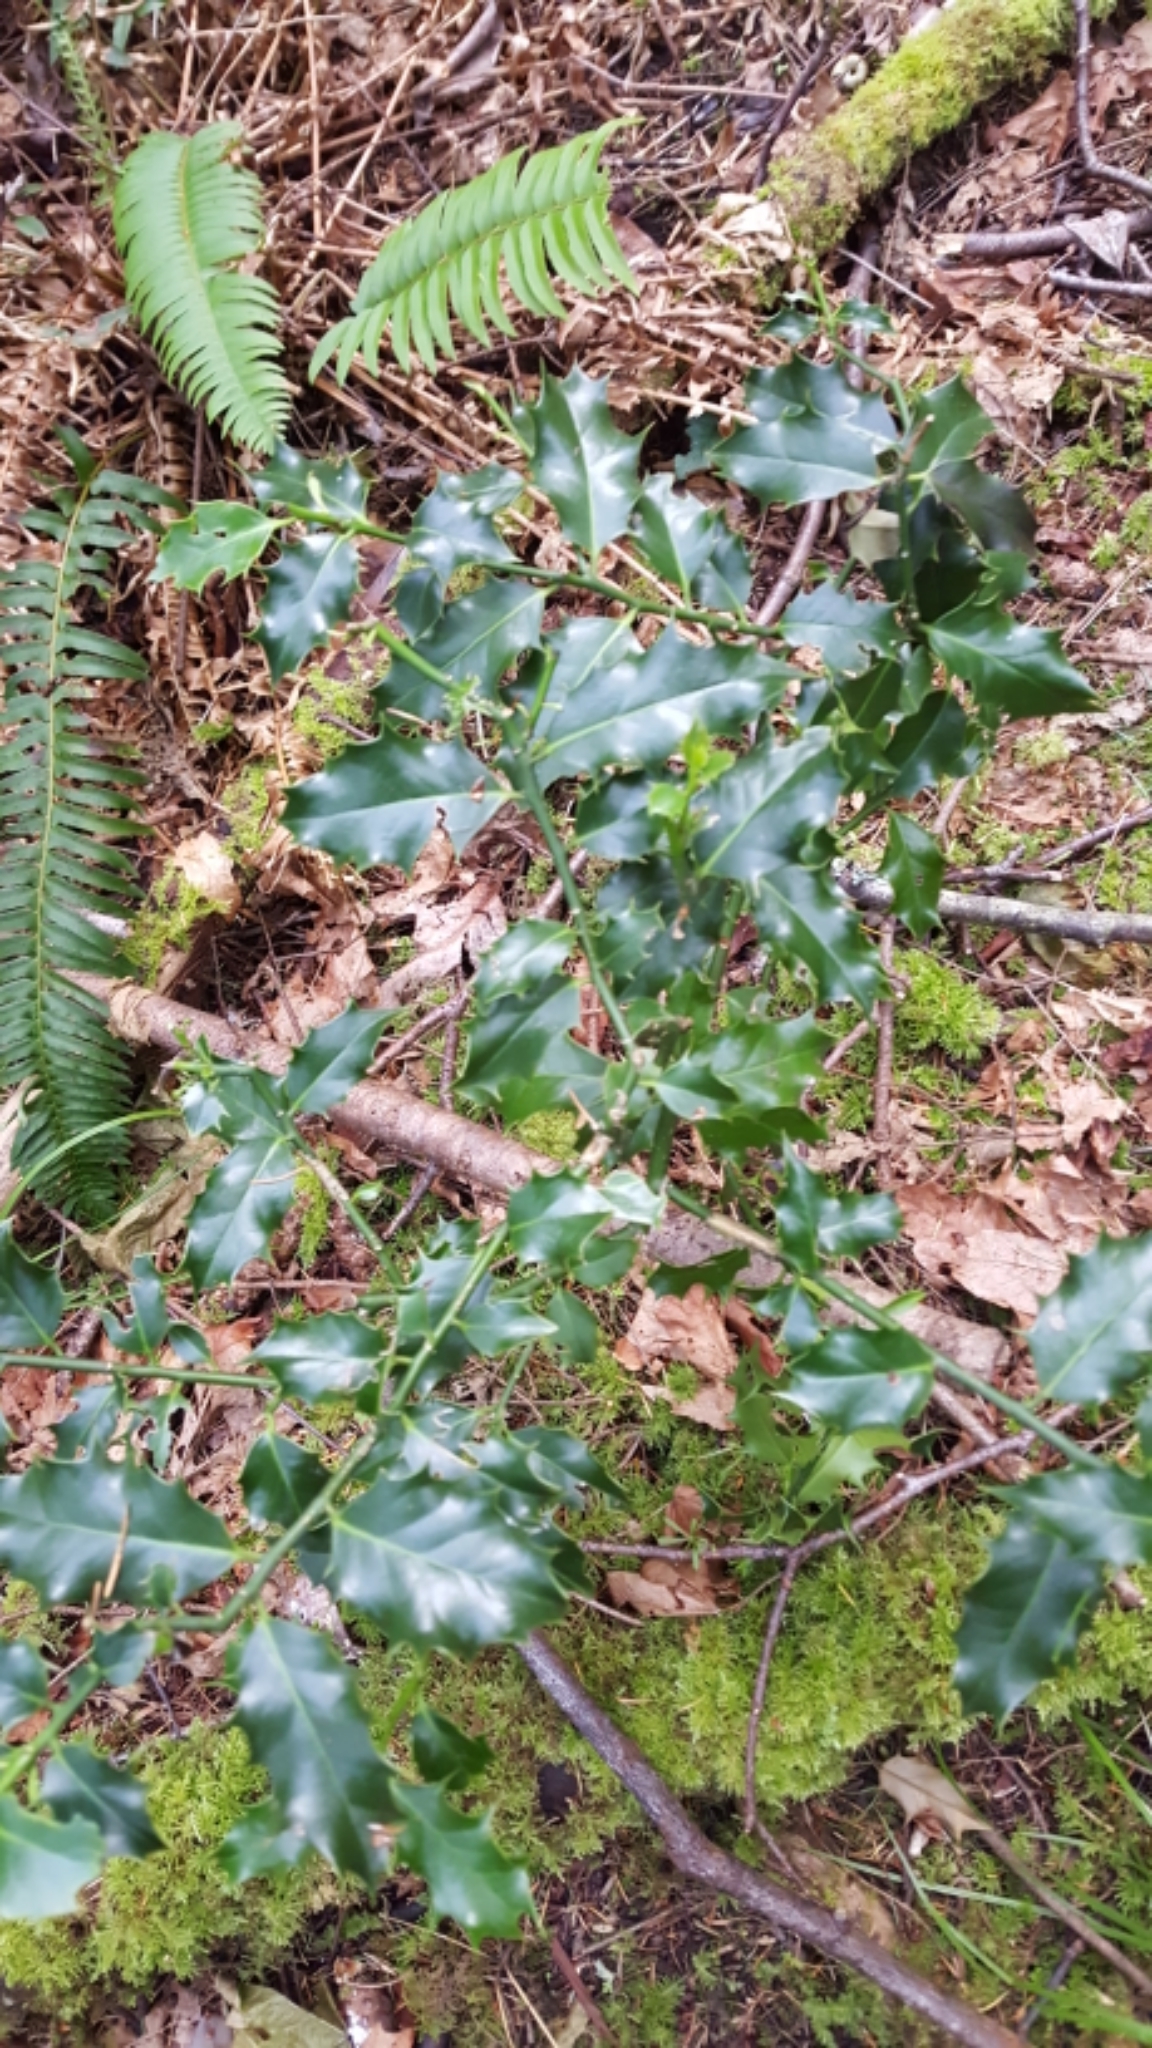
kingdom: Plantae
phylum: Tracheophyta
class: Magnoliopsida
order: Aquifoliales
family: Aquifoliaceae
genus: Ilex
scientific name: Ilex aquifolium
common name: English holly
